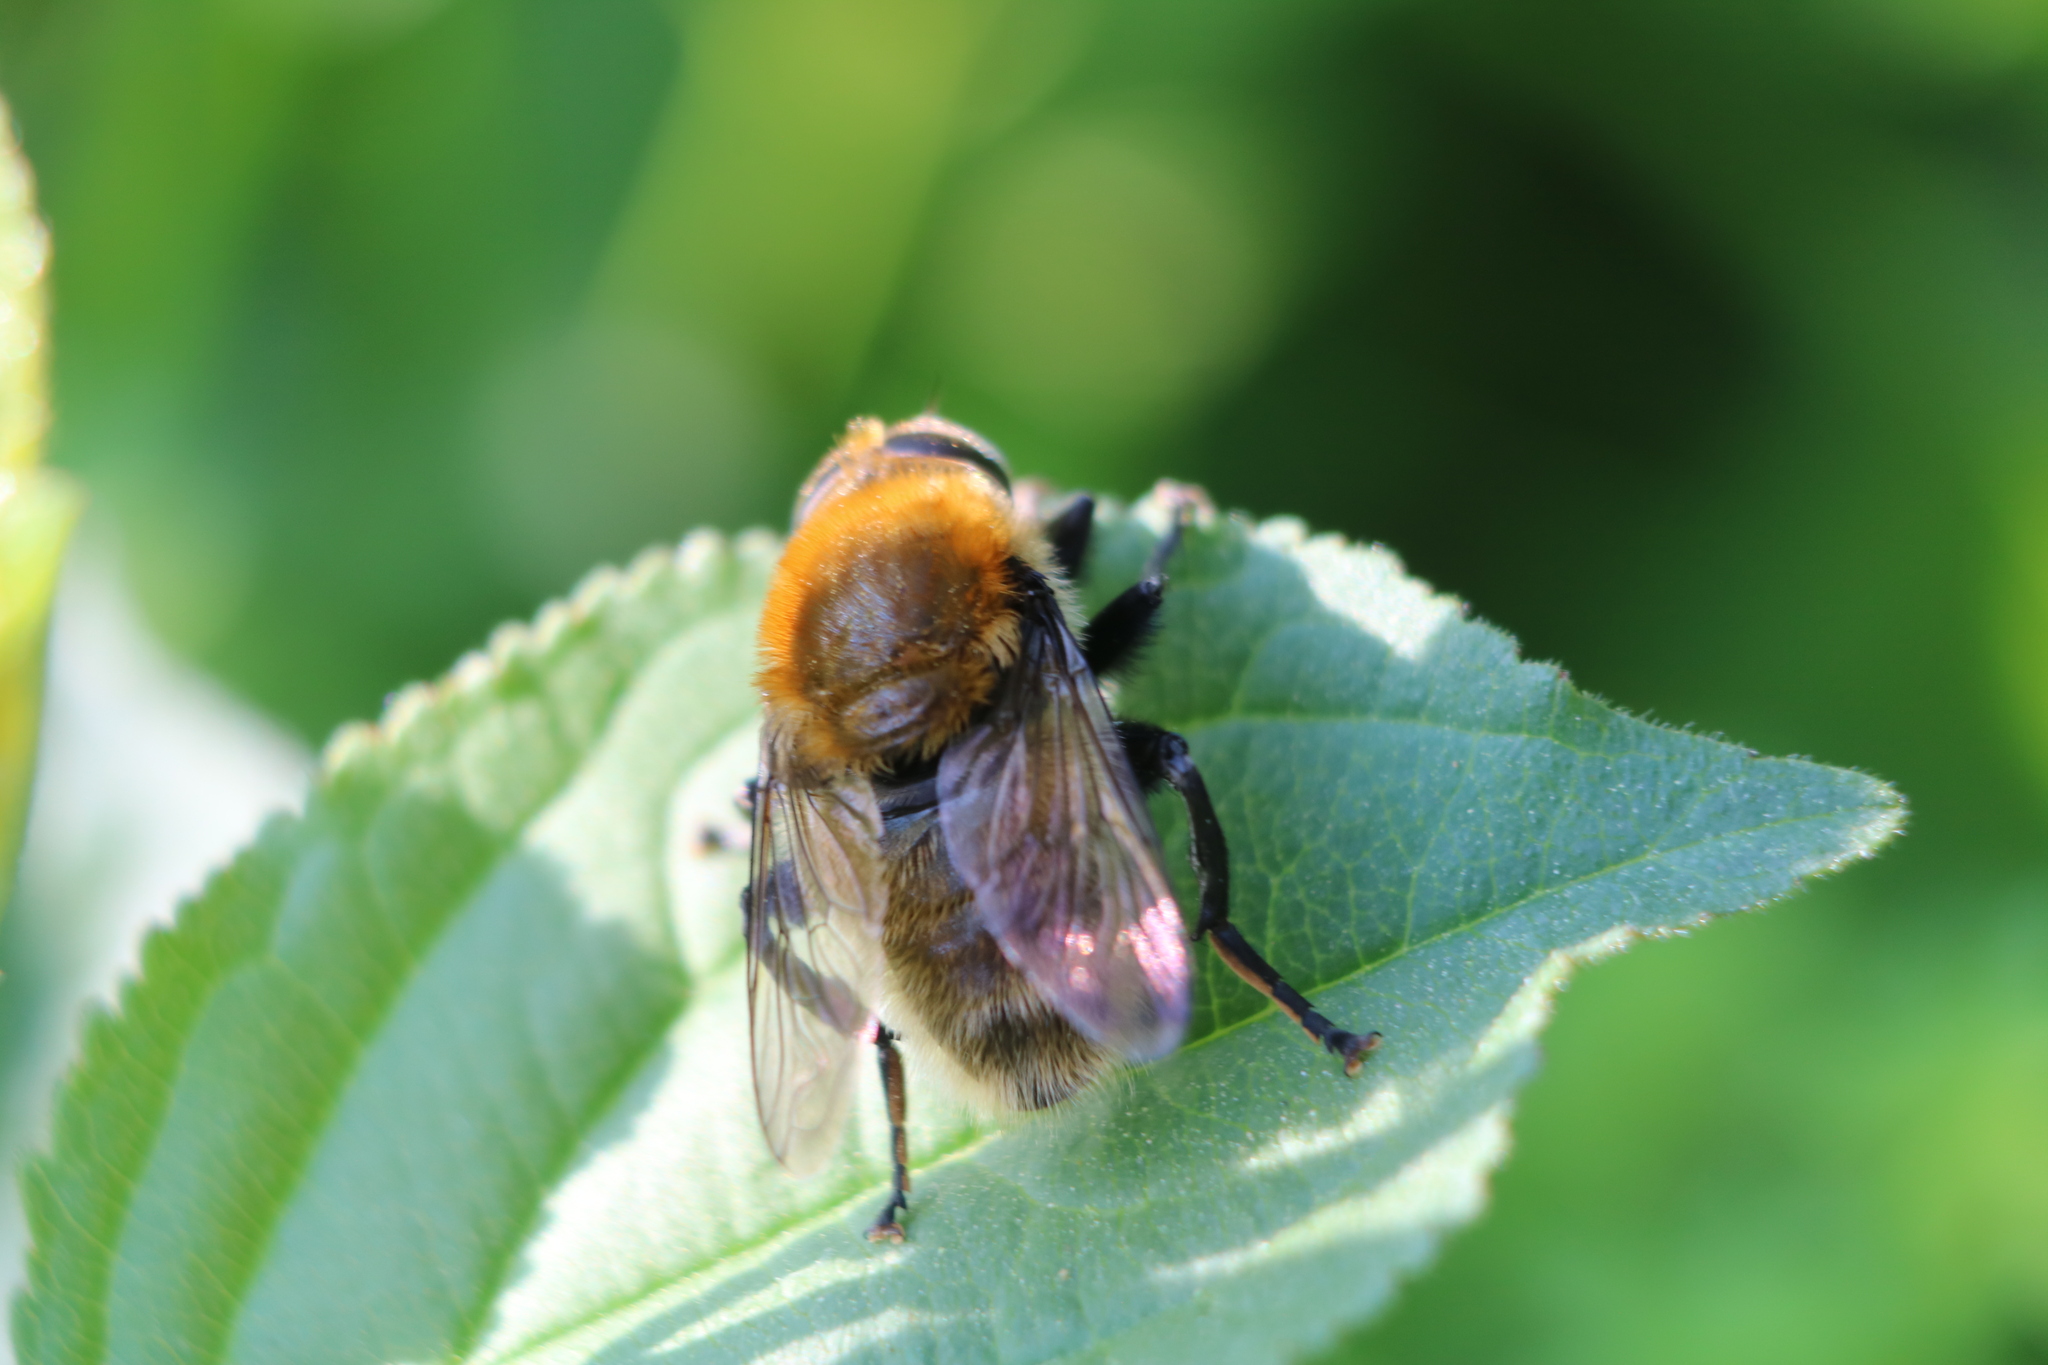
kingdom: Animalia
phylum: Arthropoda
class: Insecta
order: Diptera
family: Syrphidae
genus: Merodon
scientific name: Merodon equestris
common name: Greater bulb-fly
